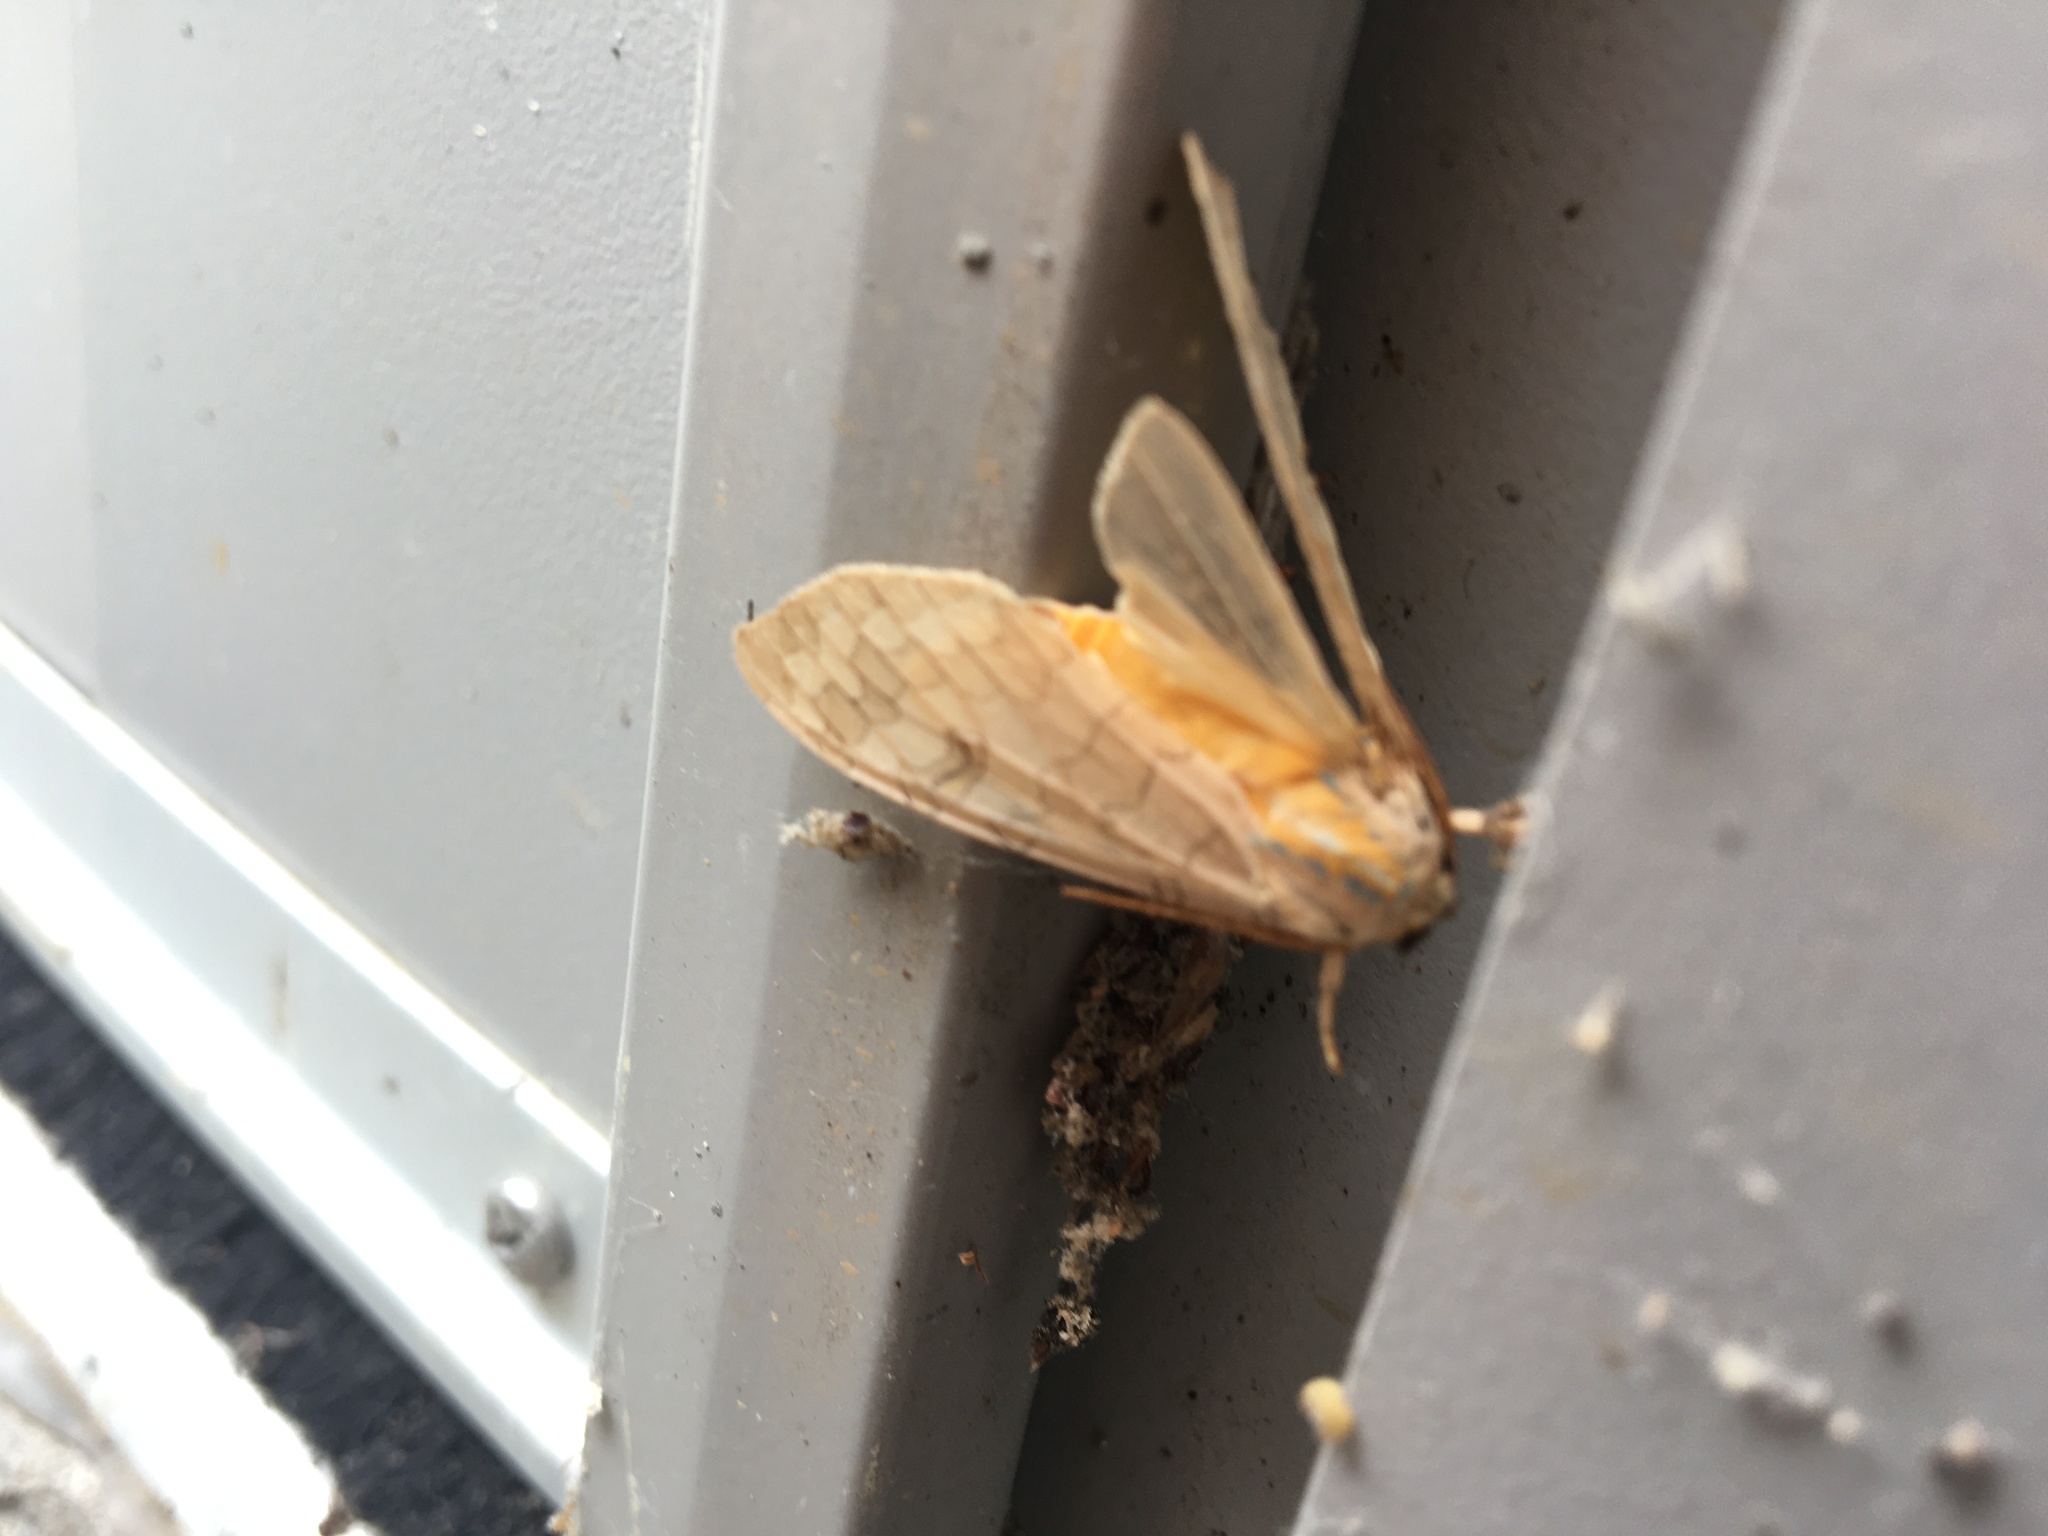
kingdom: Animalia
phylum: Arthropoda
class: Insecta
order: Lepidoptera
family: Erebidae
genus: Halysidota
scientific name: Halysidota
